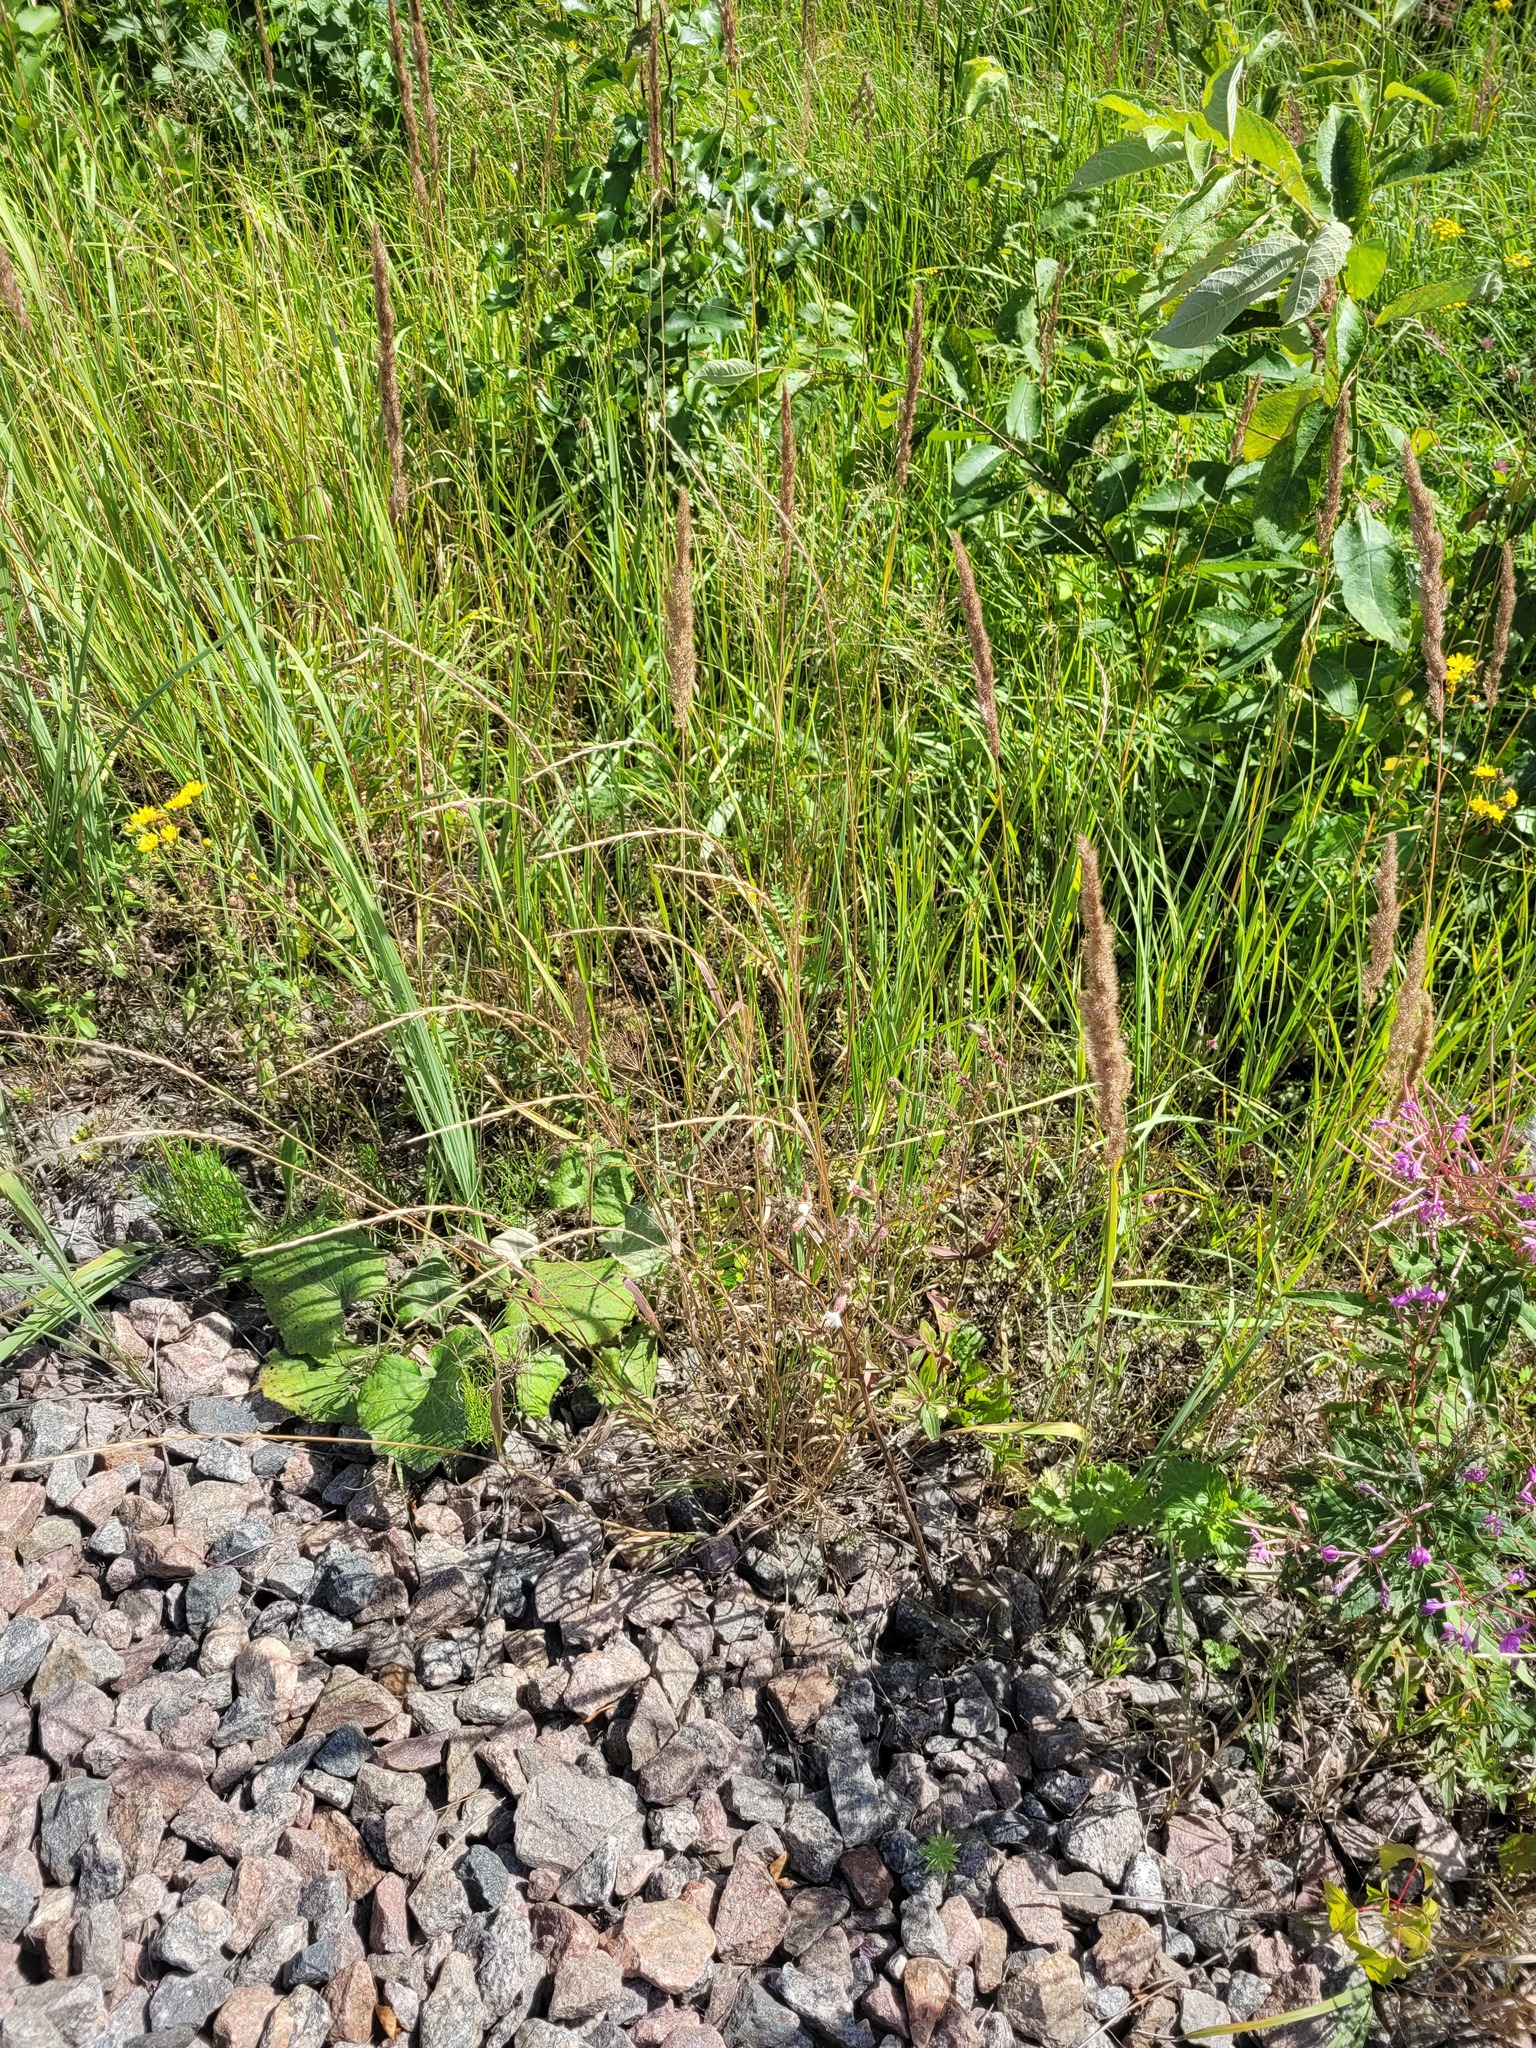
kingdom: Plantae
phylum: Tracheophyta
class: Liliopsida
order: Poales
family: Poaceae
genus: Calamagrostis
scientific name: Calamagrostis epigejos
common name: Wood small-reed
